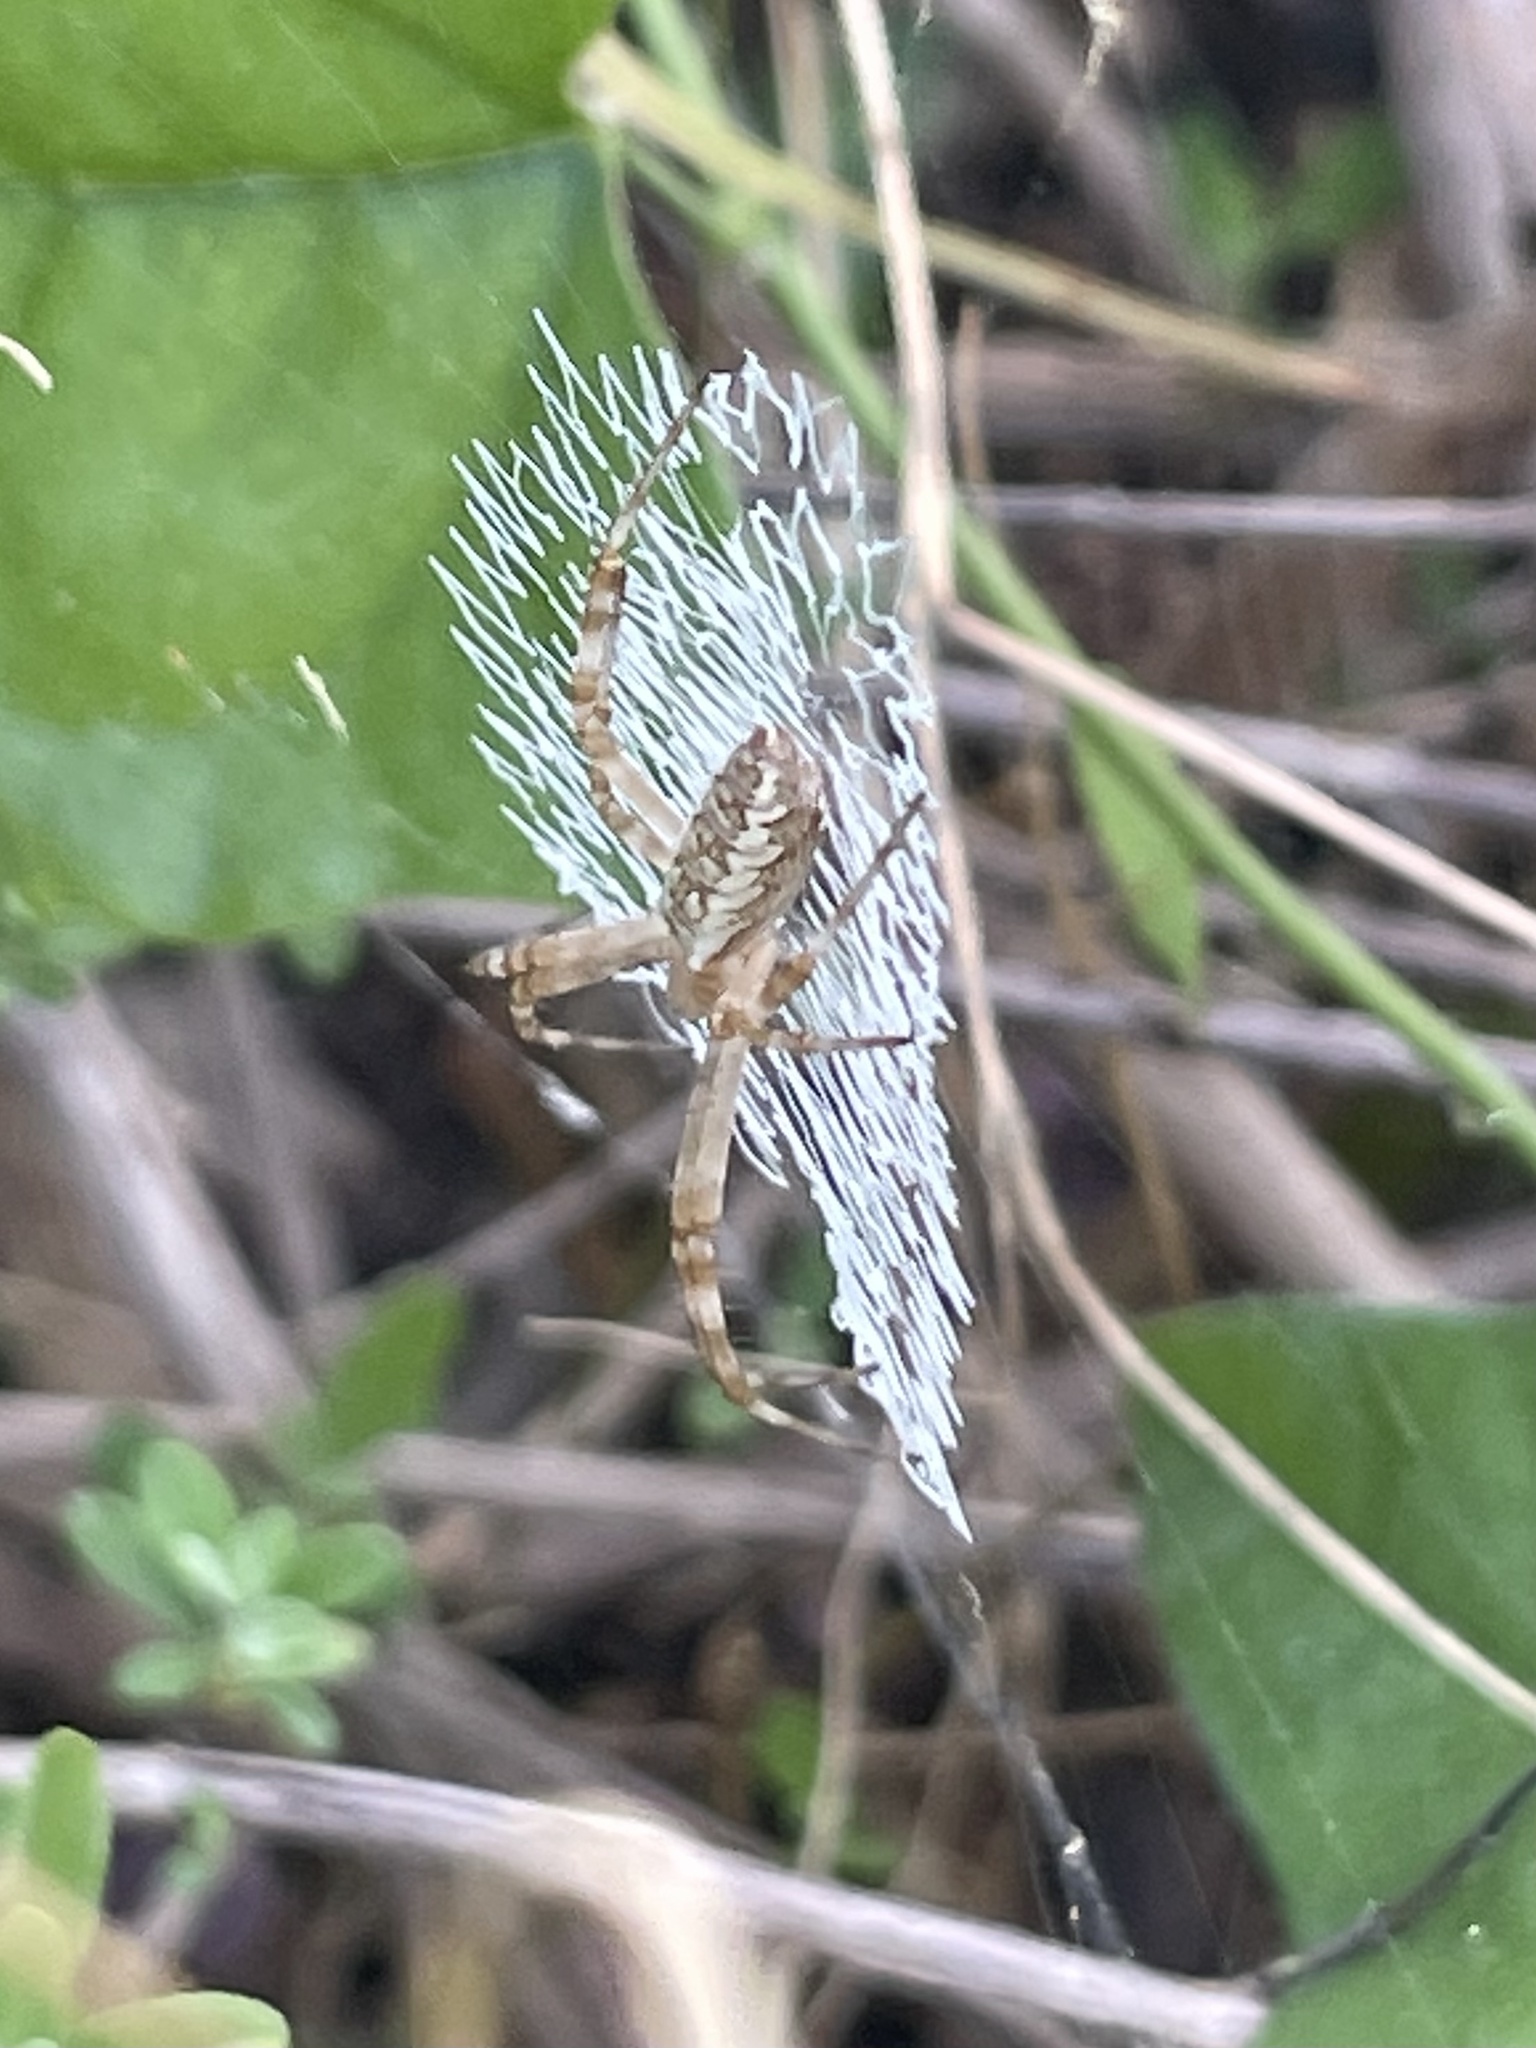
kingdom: Animalia
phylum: Arthropoda
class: Arachnida
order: Araneae
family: Araneidae
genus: Argiope
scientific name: Argiope aurantia
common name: Orb weavers
